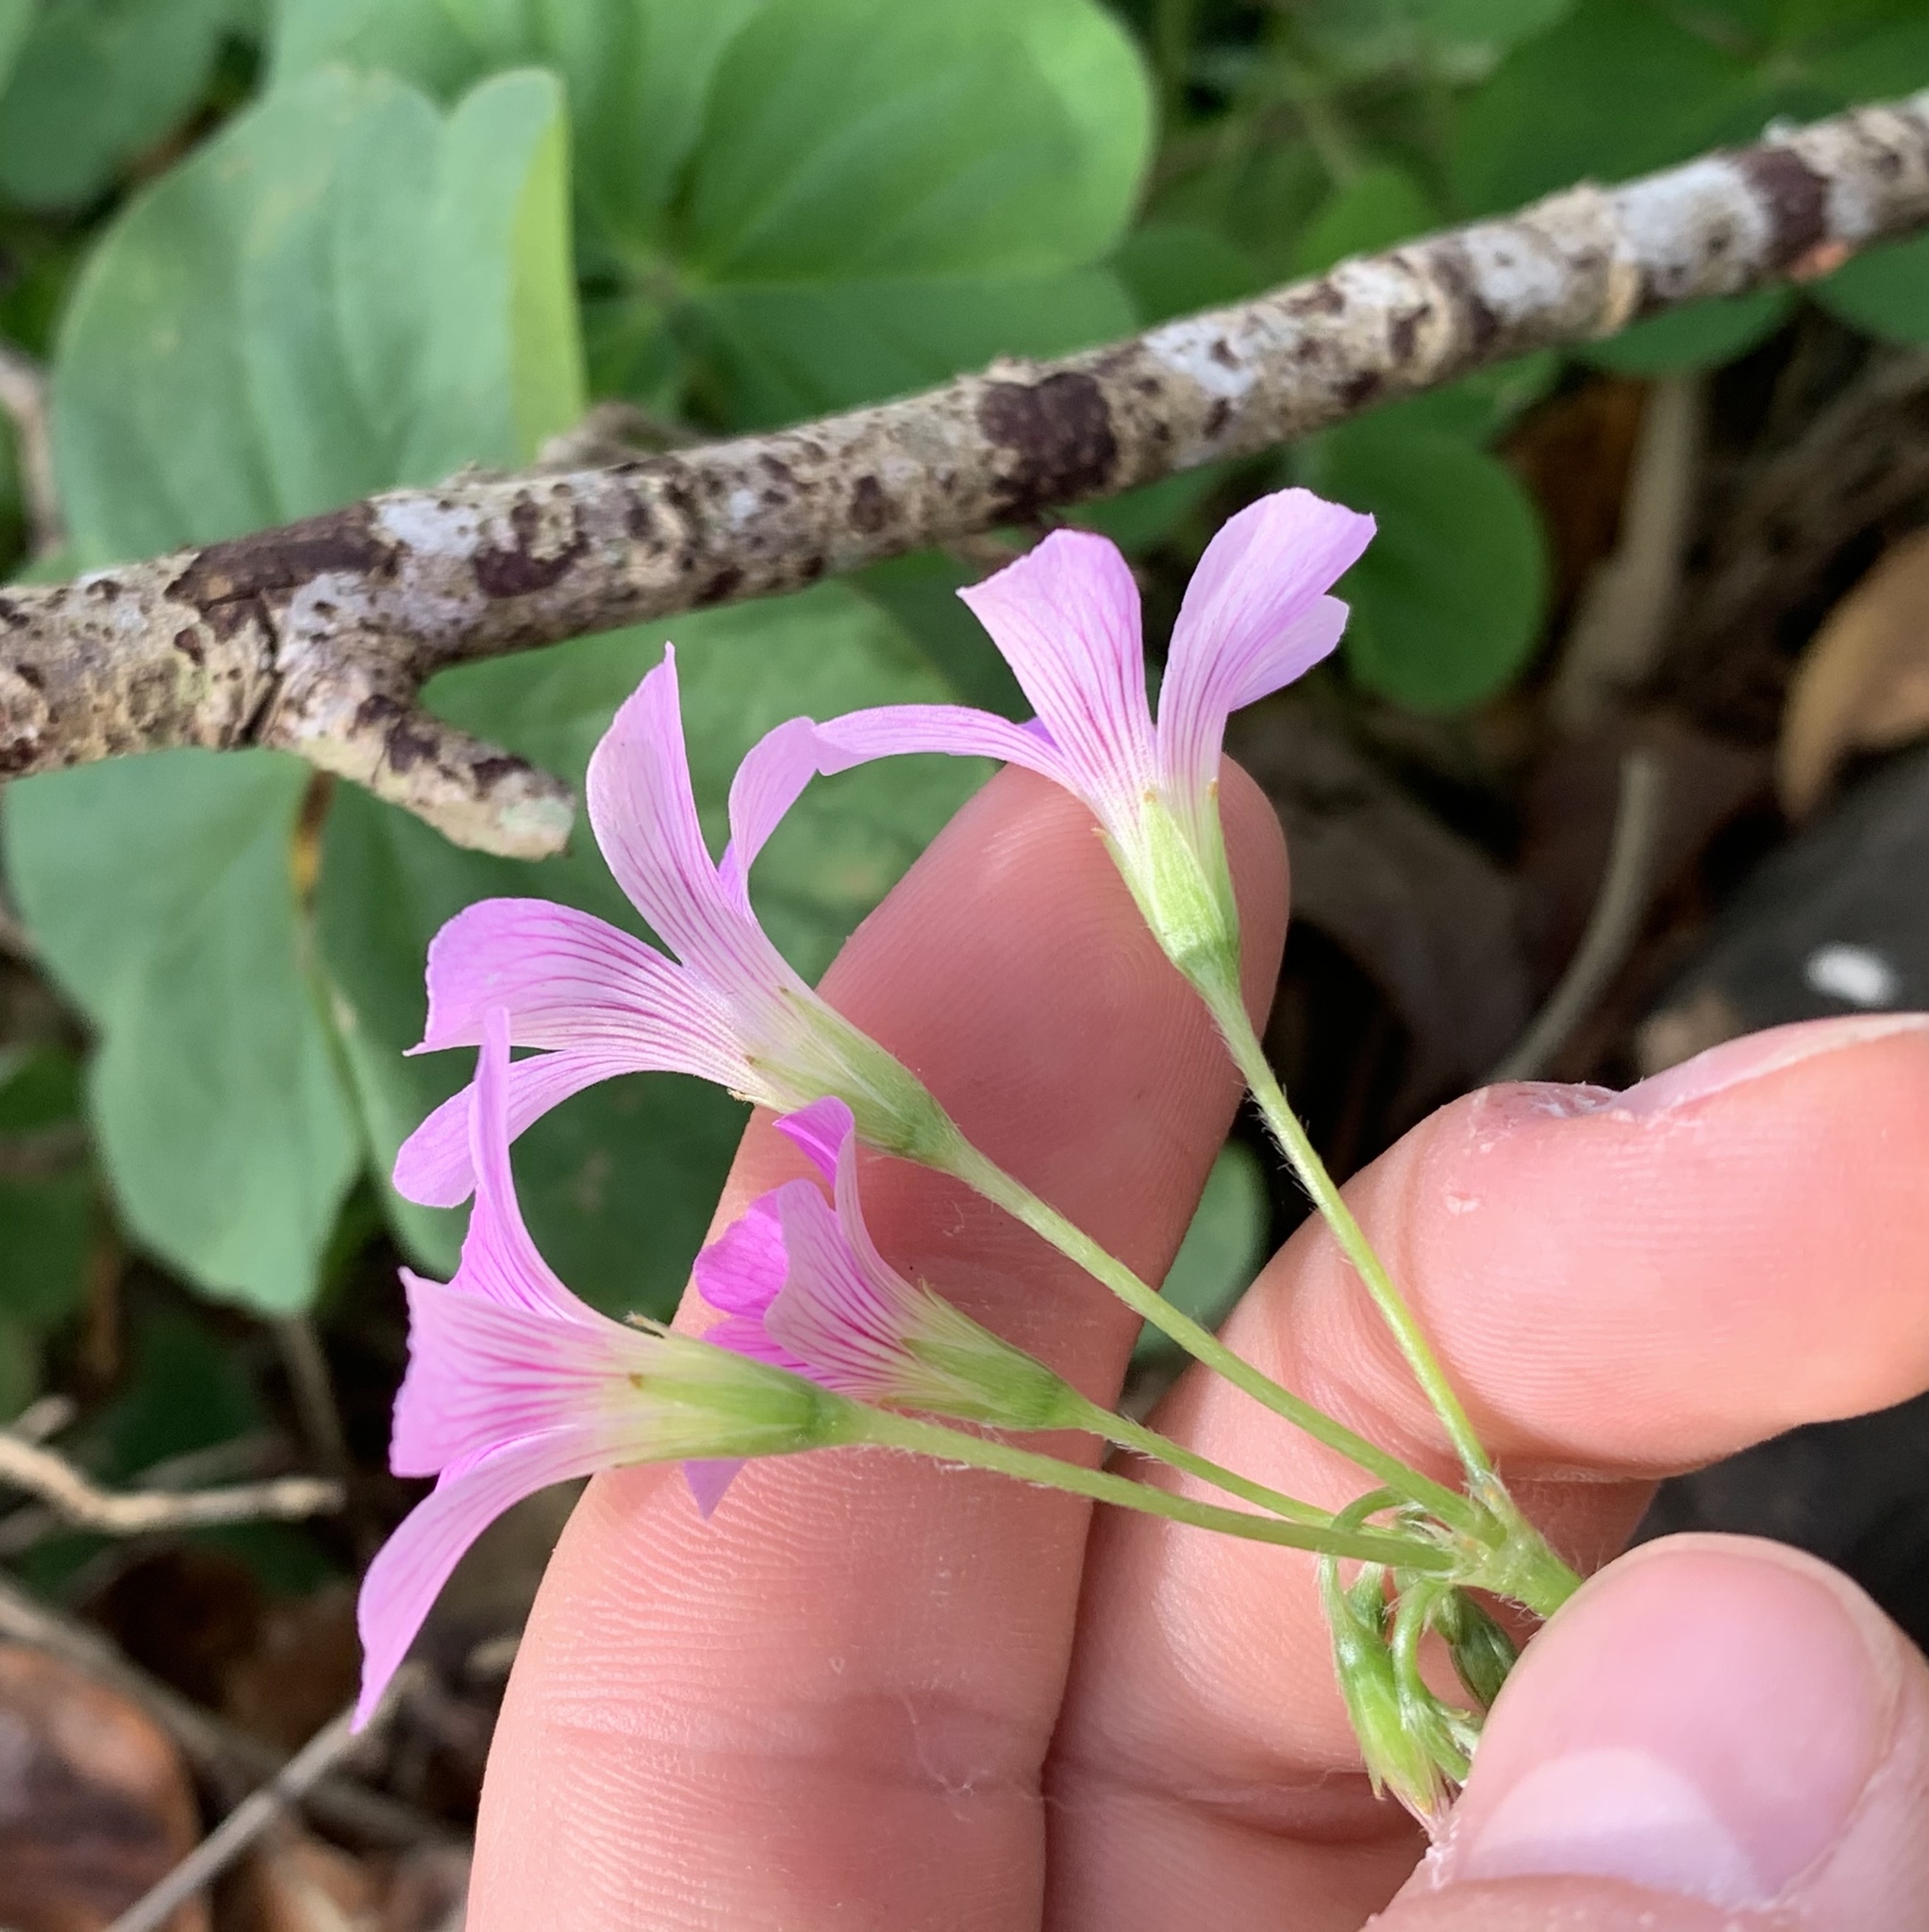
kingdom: Plantae
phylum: Tracheophyta
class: Magnoliopsida
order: Oxalidales
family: Oxalidaceae
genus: Oxalis
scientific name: Oxalis debilis
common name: Large-flowered pink-sorrel
